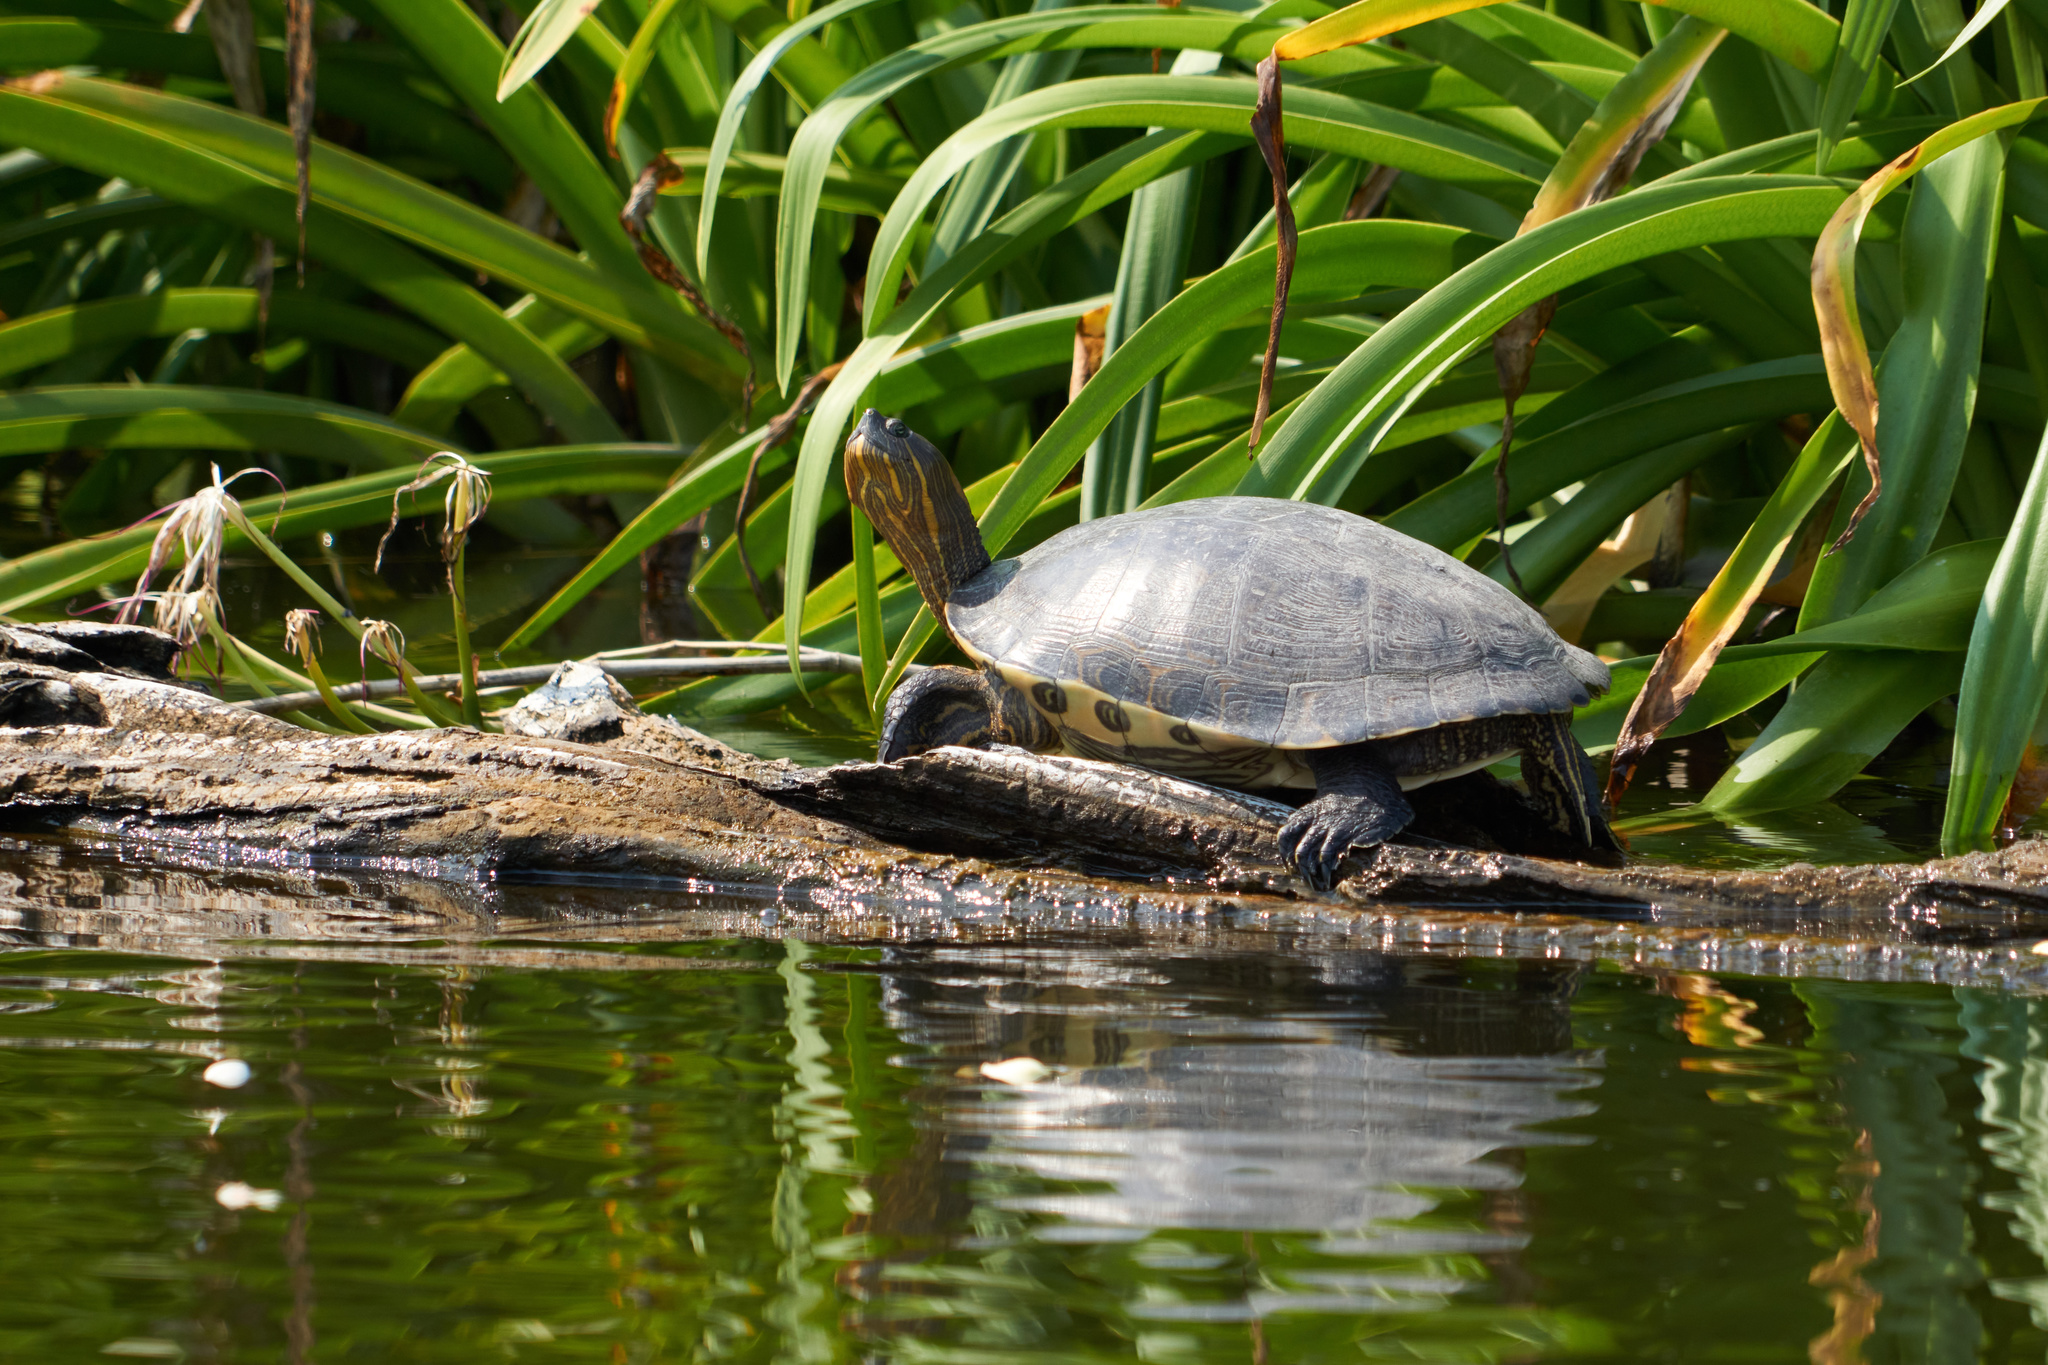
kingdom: Animalia
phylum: Chordata
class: Testudines
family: Emydidae
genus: Trachemys
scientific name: Trachemys ornata
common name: Ornate slider
